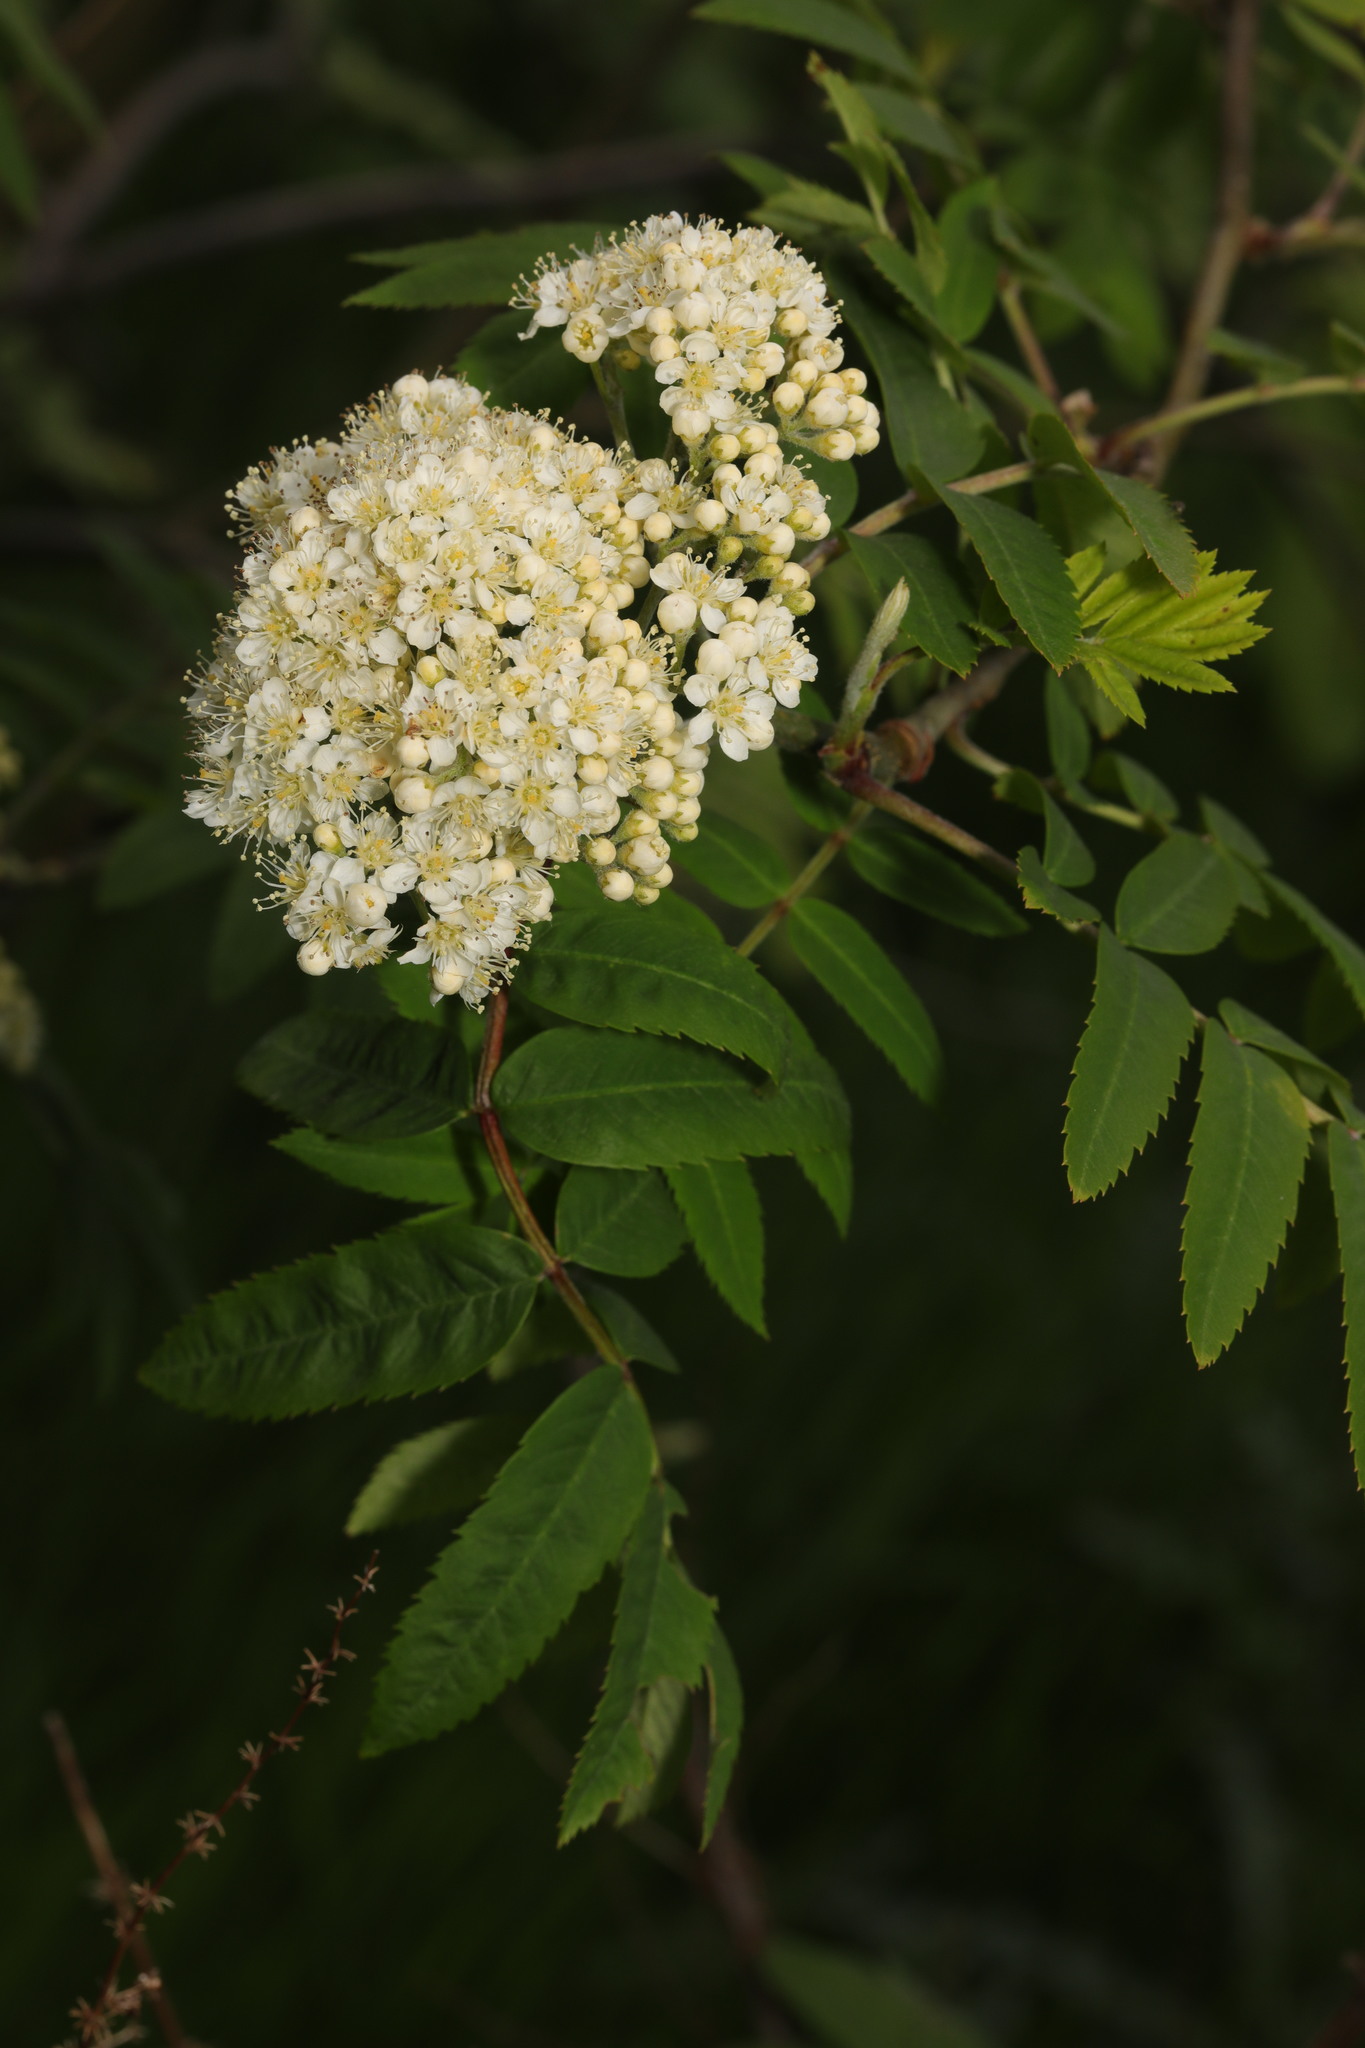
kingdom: Plantae
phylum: Tracheophyta
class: Magnoliopsida
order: Rosales
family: Rosaceae
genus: Sorbus
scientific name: Sorbus aucuparia
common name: Rowan
